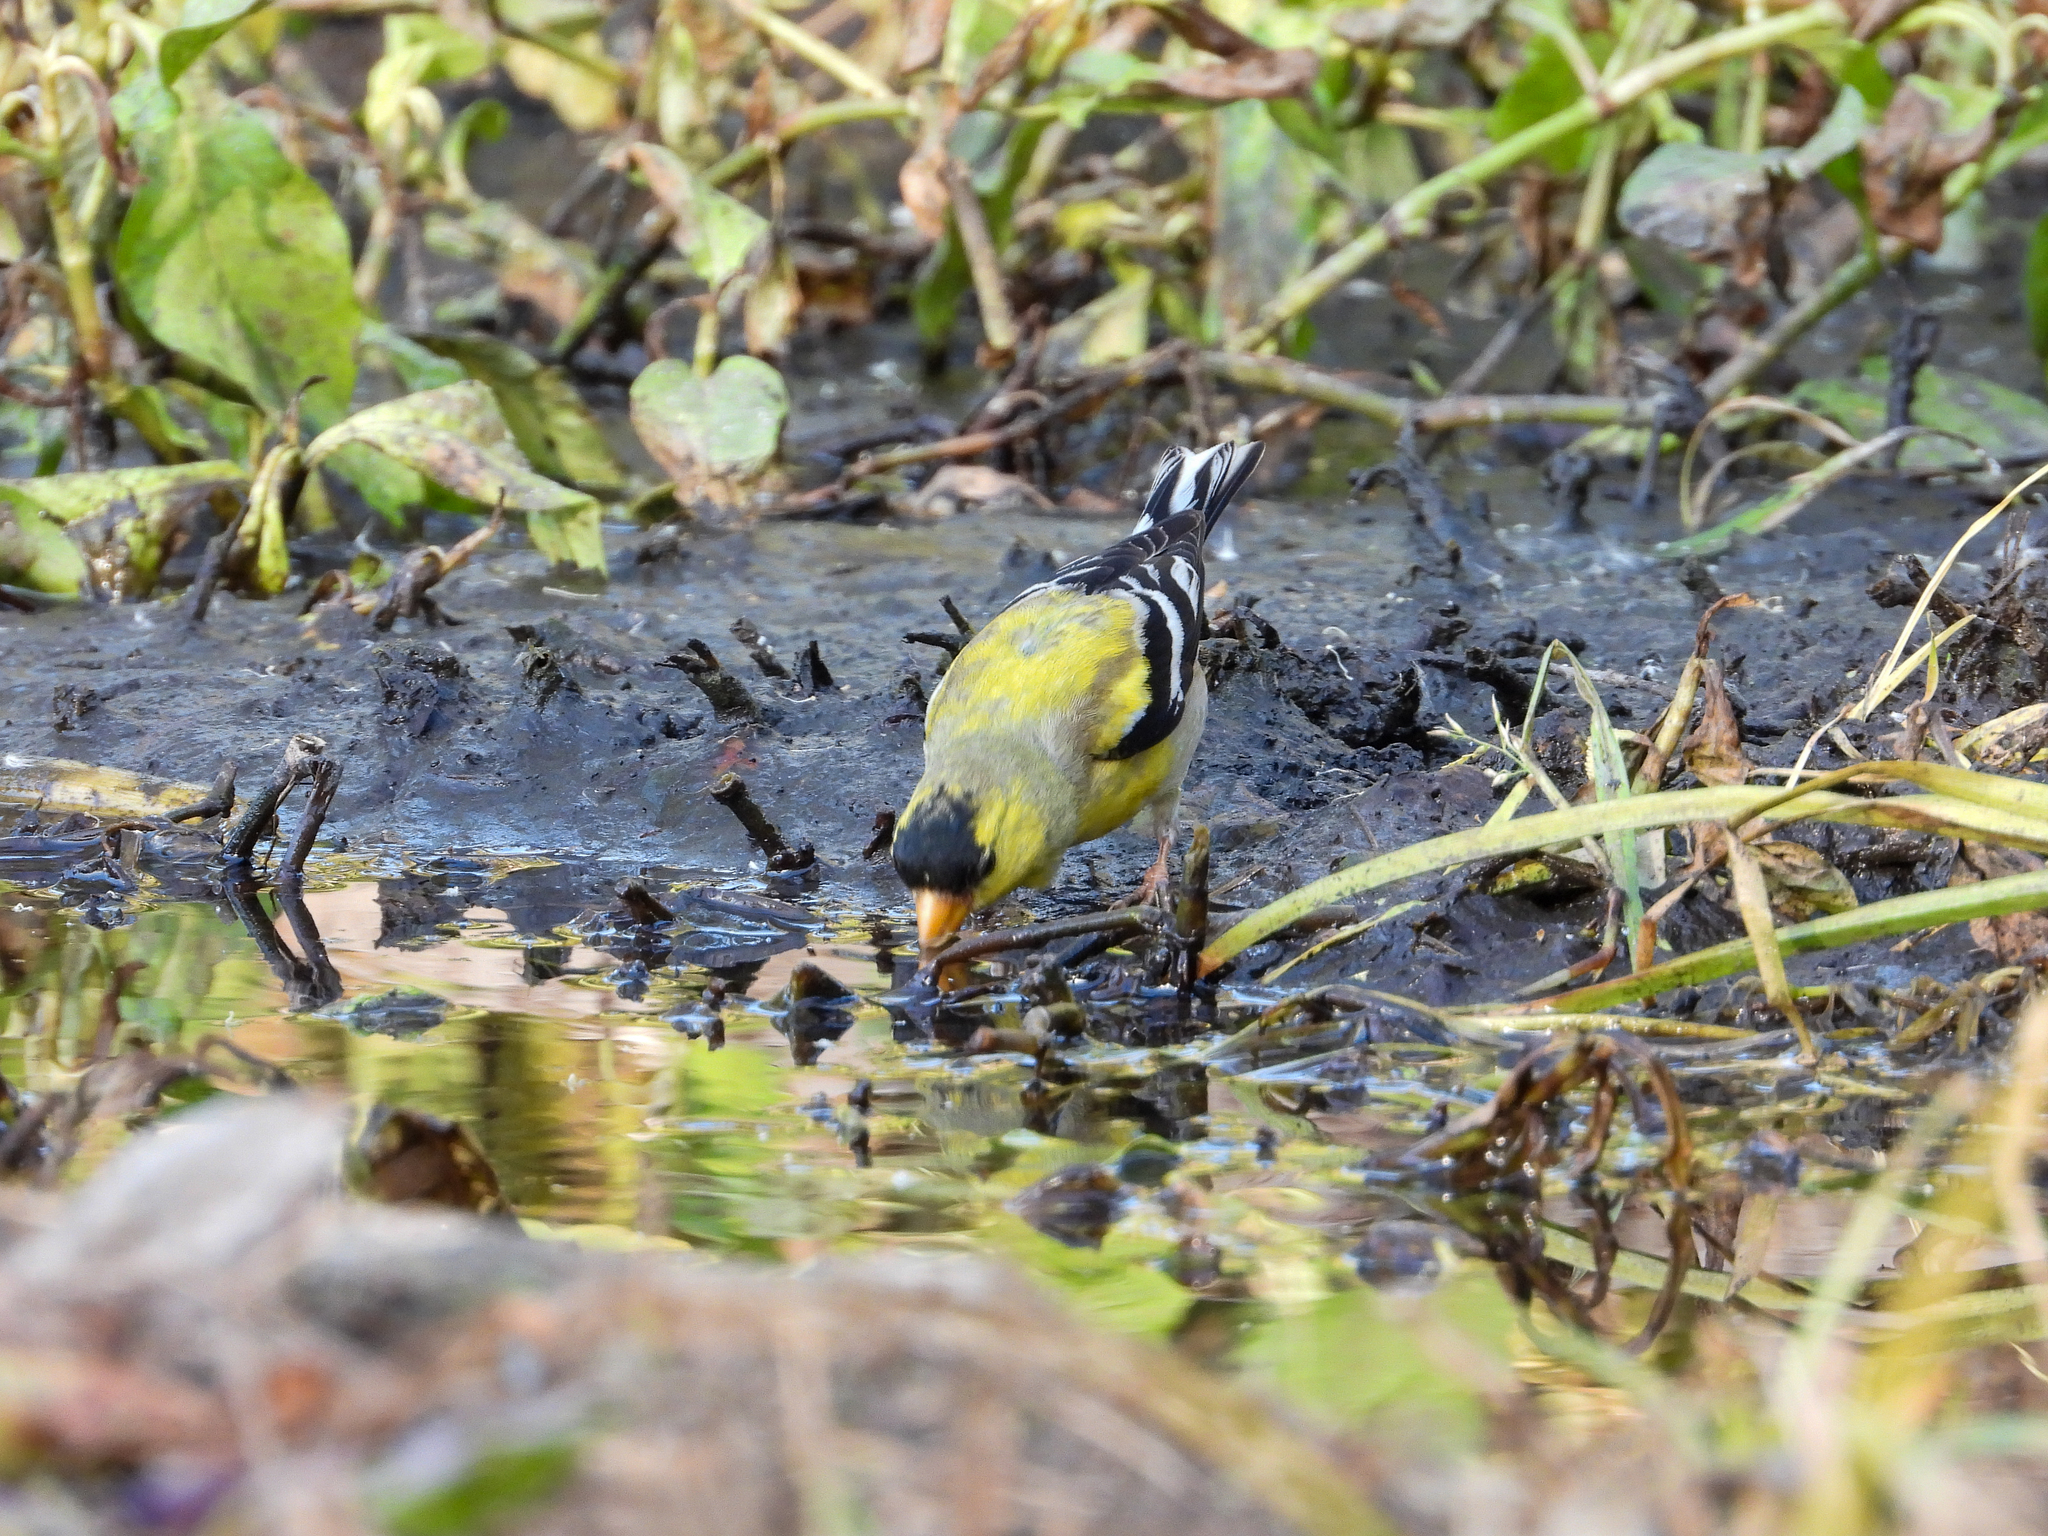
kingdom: Animalia
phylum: Chordata
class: Aves
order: Passeriformes
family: Fringillidae
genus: Spinus
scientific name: Spinus tristis
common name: American goldfinch
